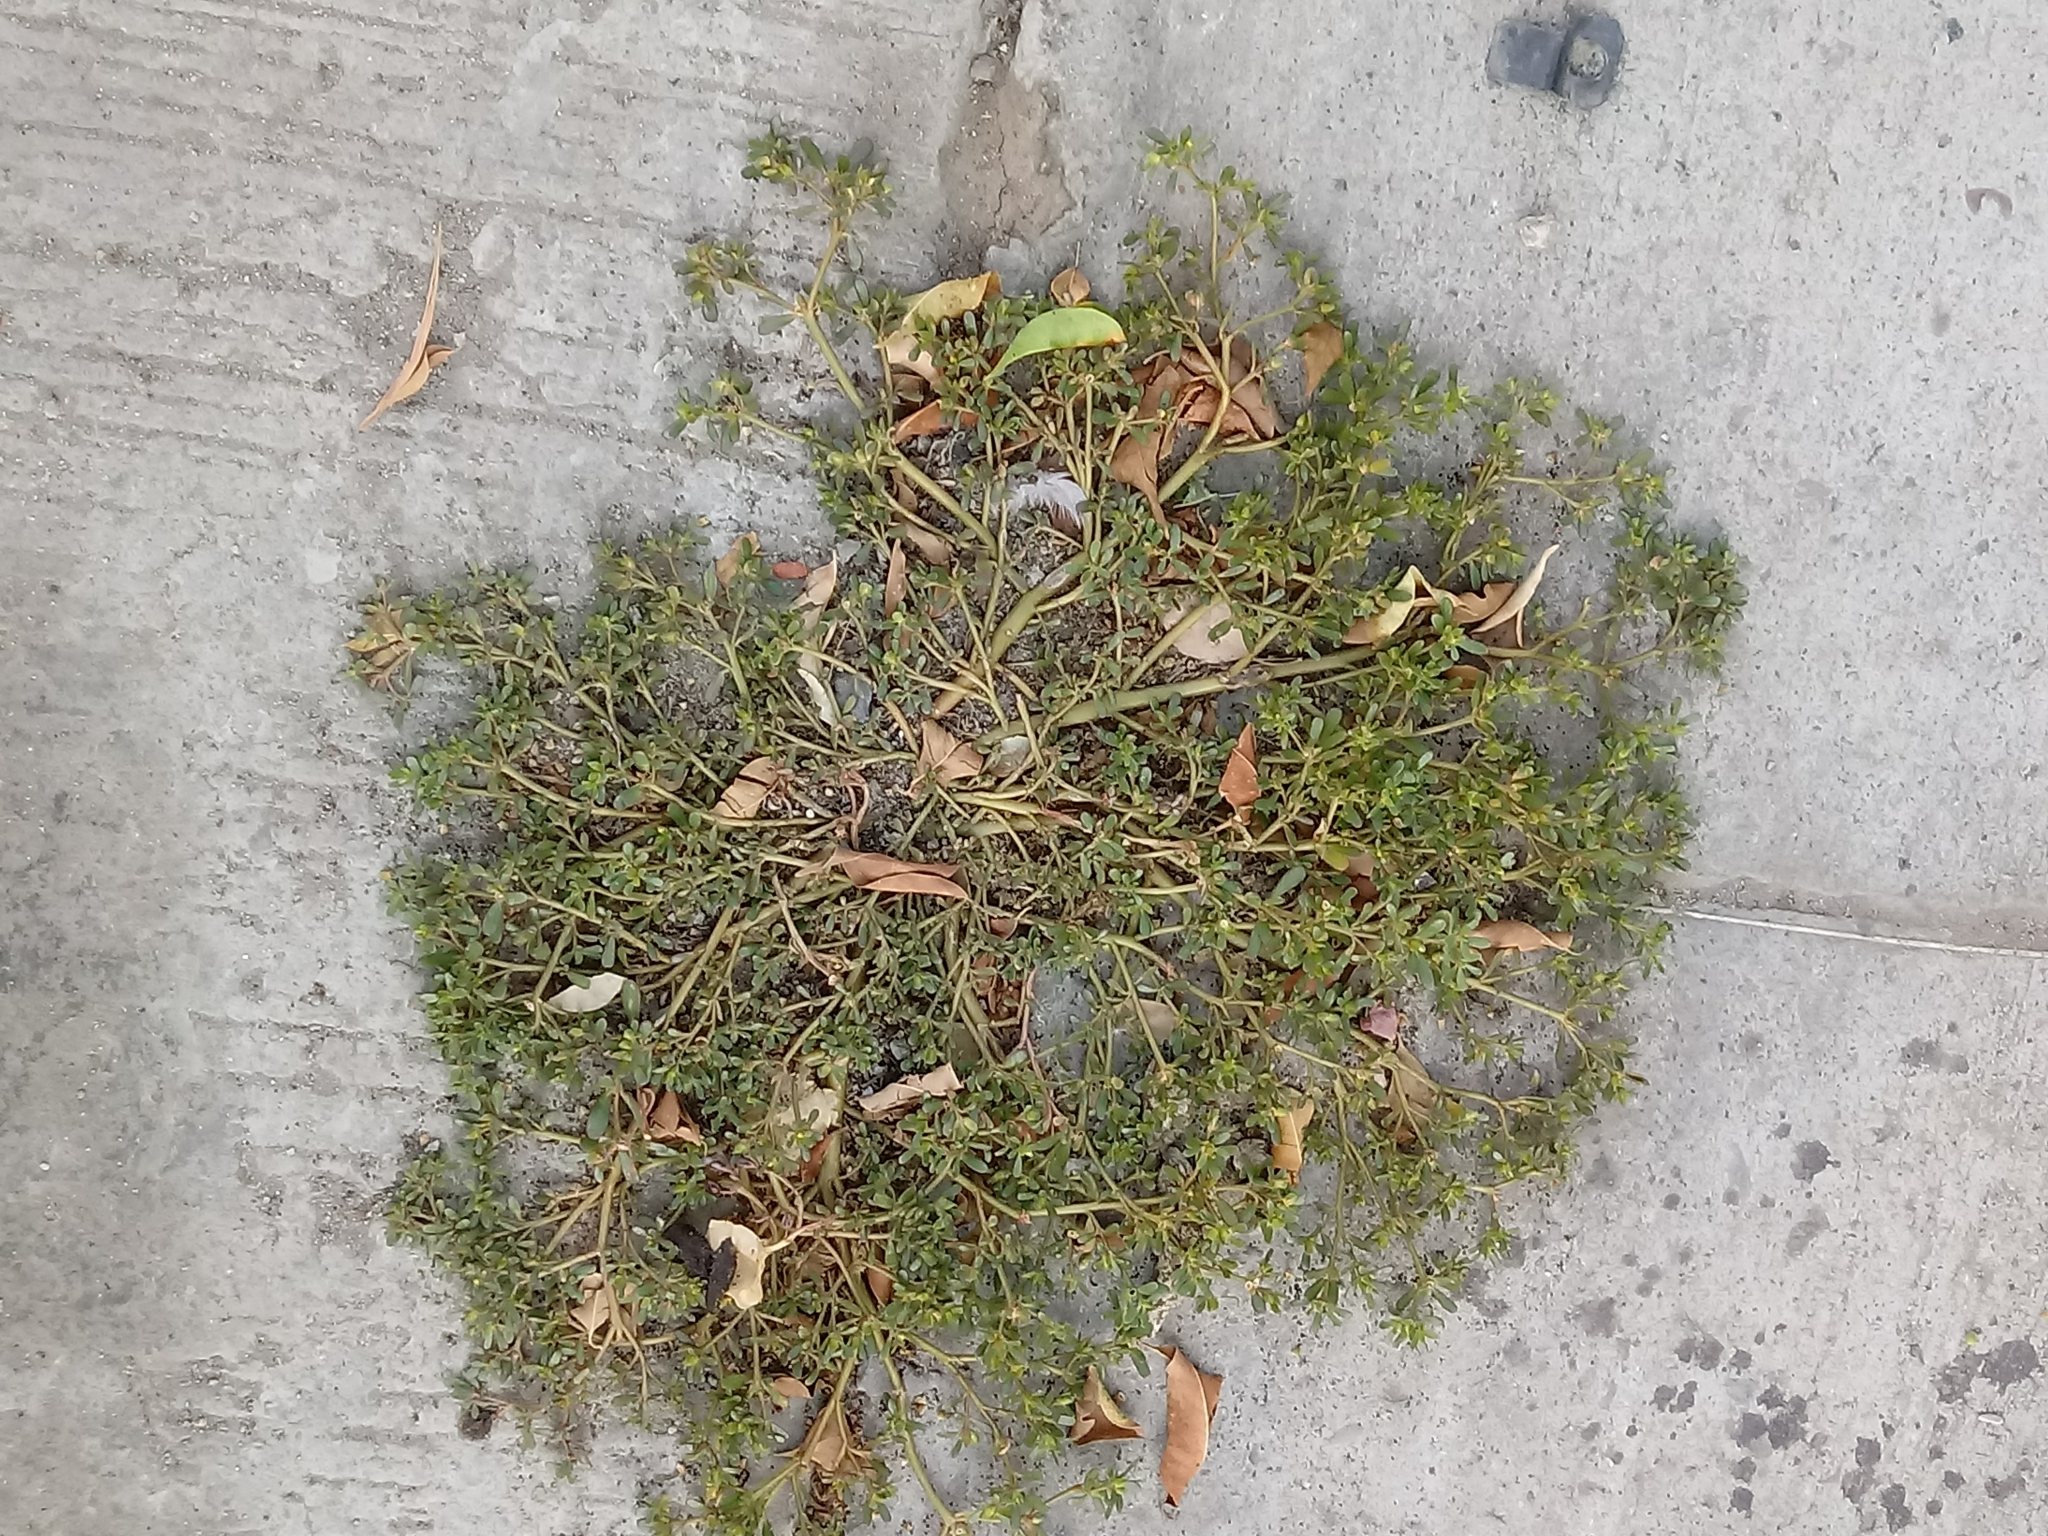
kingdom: Plantae
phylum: Tracheophyta
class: Magnoliopsida
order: Caryophyllales
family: Portulacaceae
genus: Portulaca
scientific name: Portulaca oleracea
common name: Common purslane
